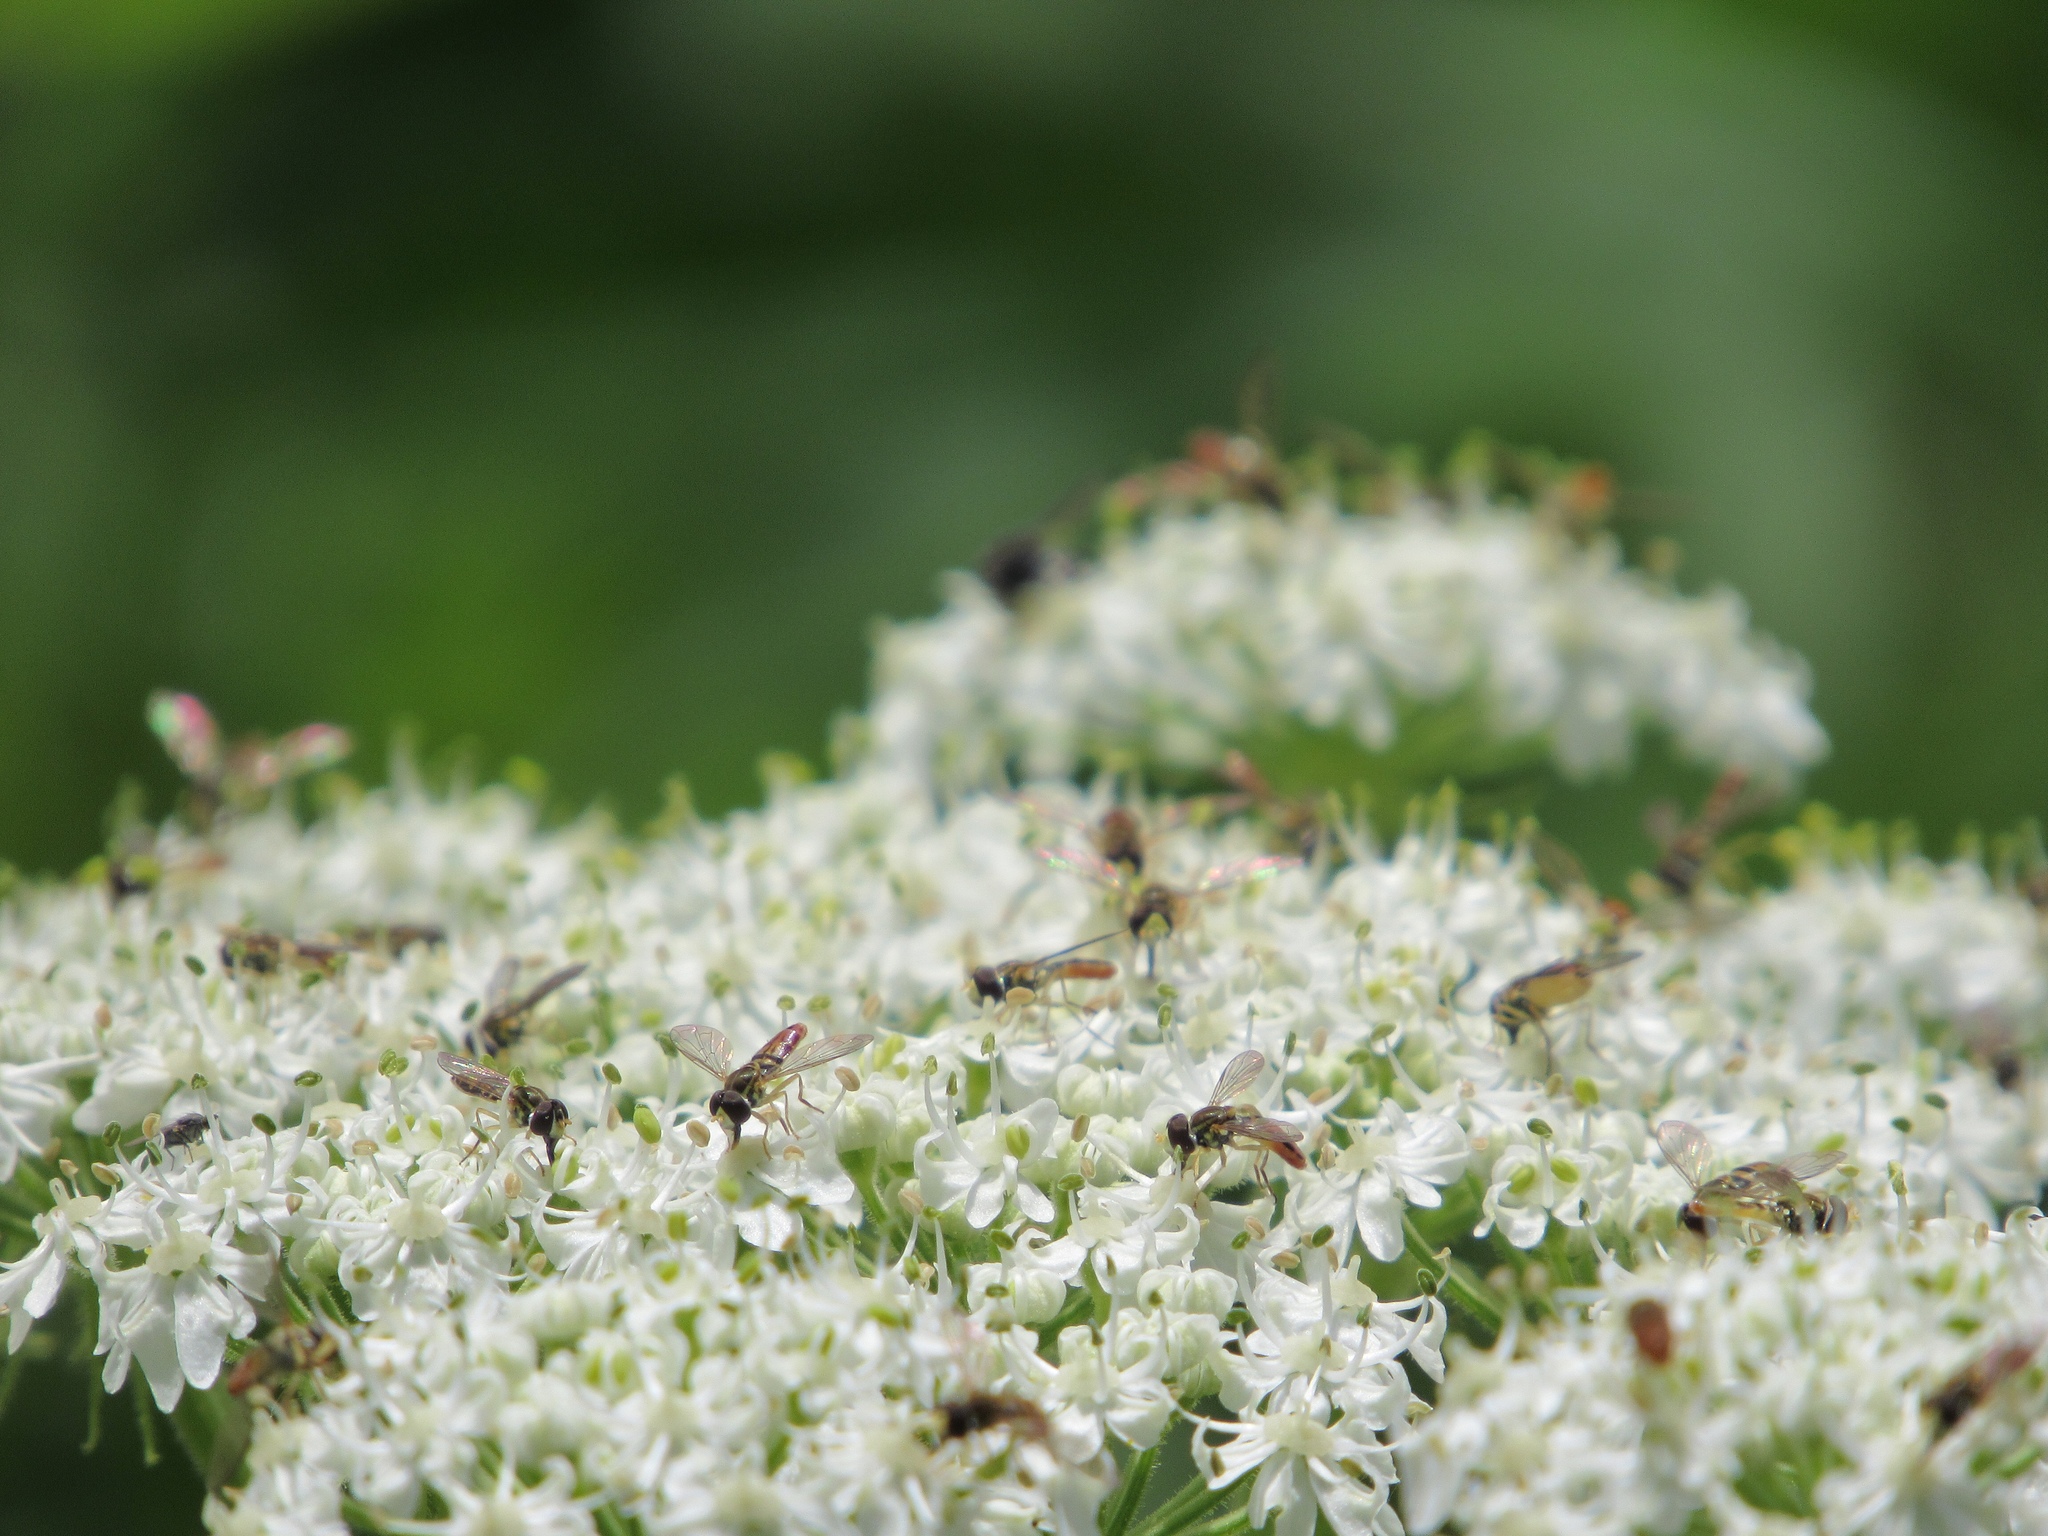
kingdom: Animalia
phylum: Arthropoda
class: Insecta
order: Diptera
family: Syrphidae
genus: Toxomerus
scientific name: Toxomerus marginatus
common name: Syrphid fly
